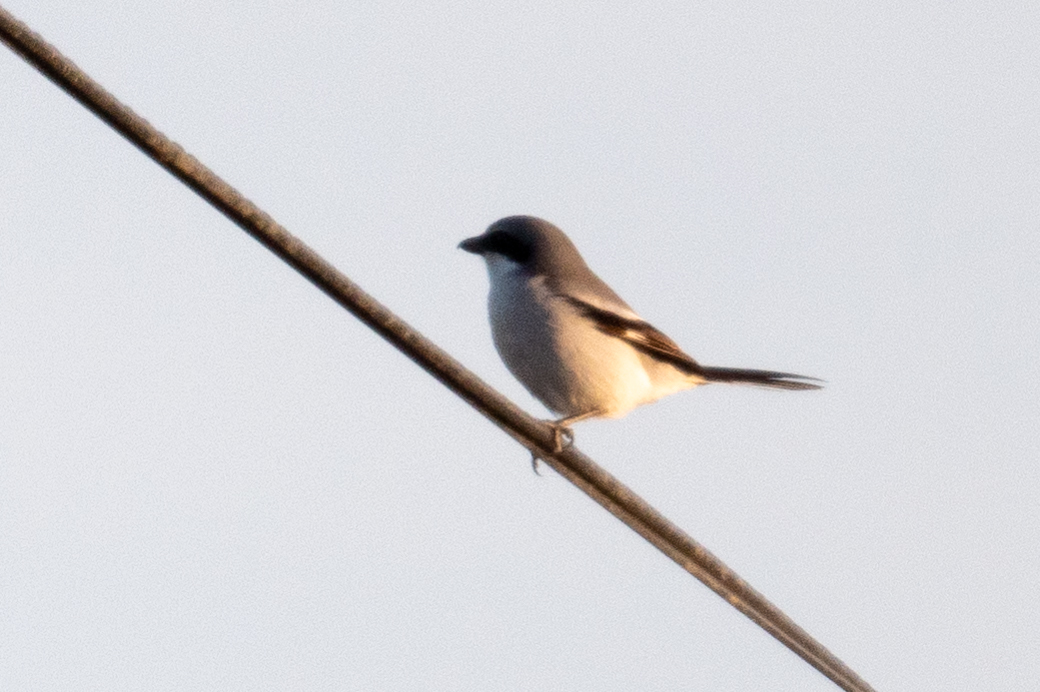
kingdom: Animalia
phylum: Chordata
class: Aves
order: Passeriformes
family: Laniidae
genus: Lanius
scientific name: Lanius ludovicianus
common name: Loggerhead shrike
